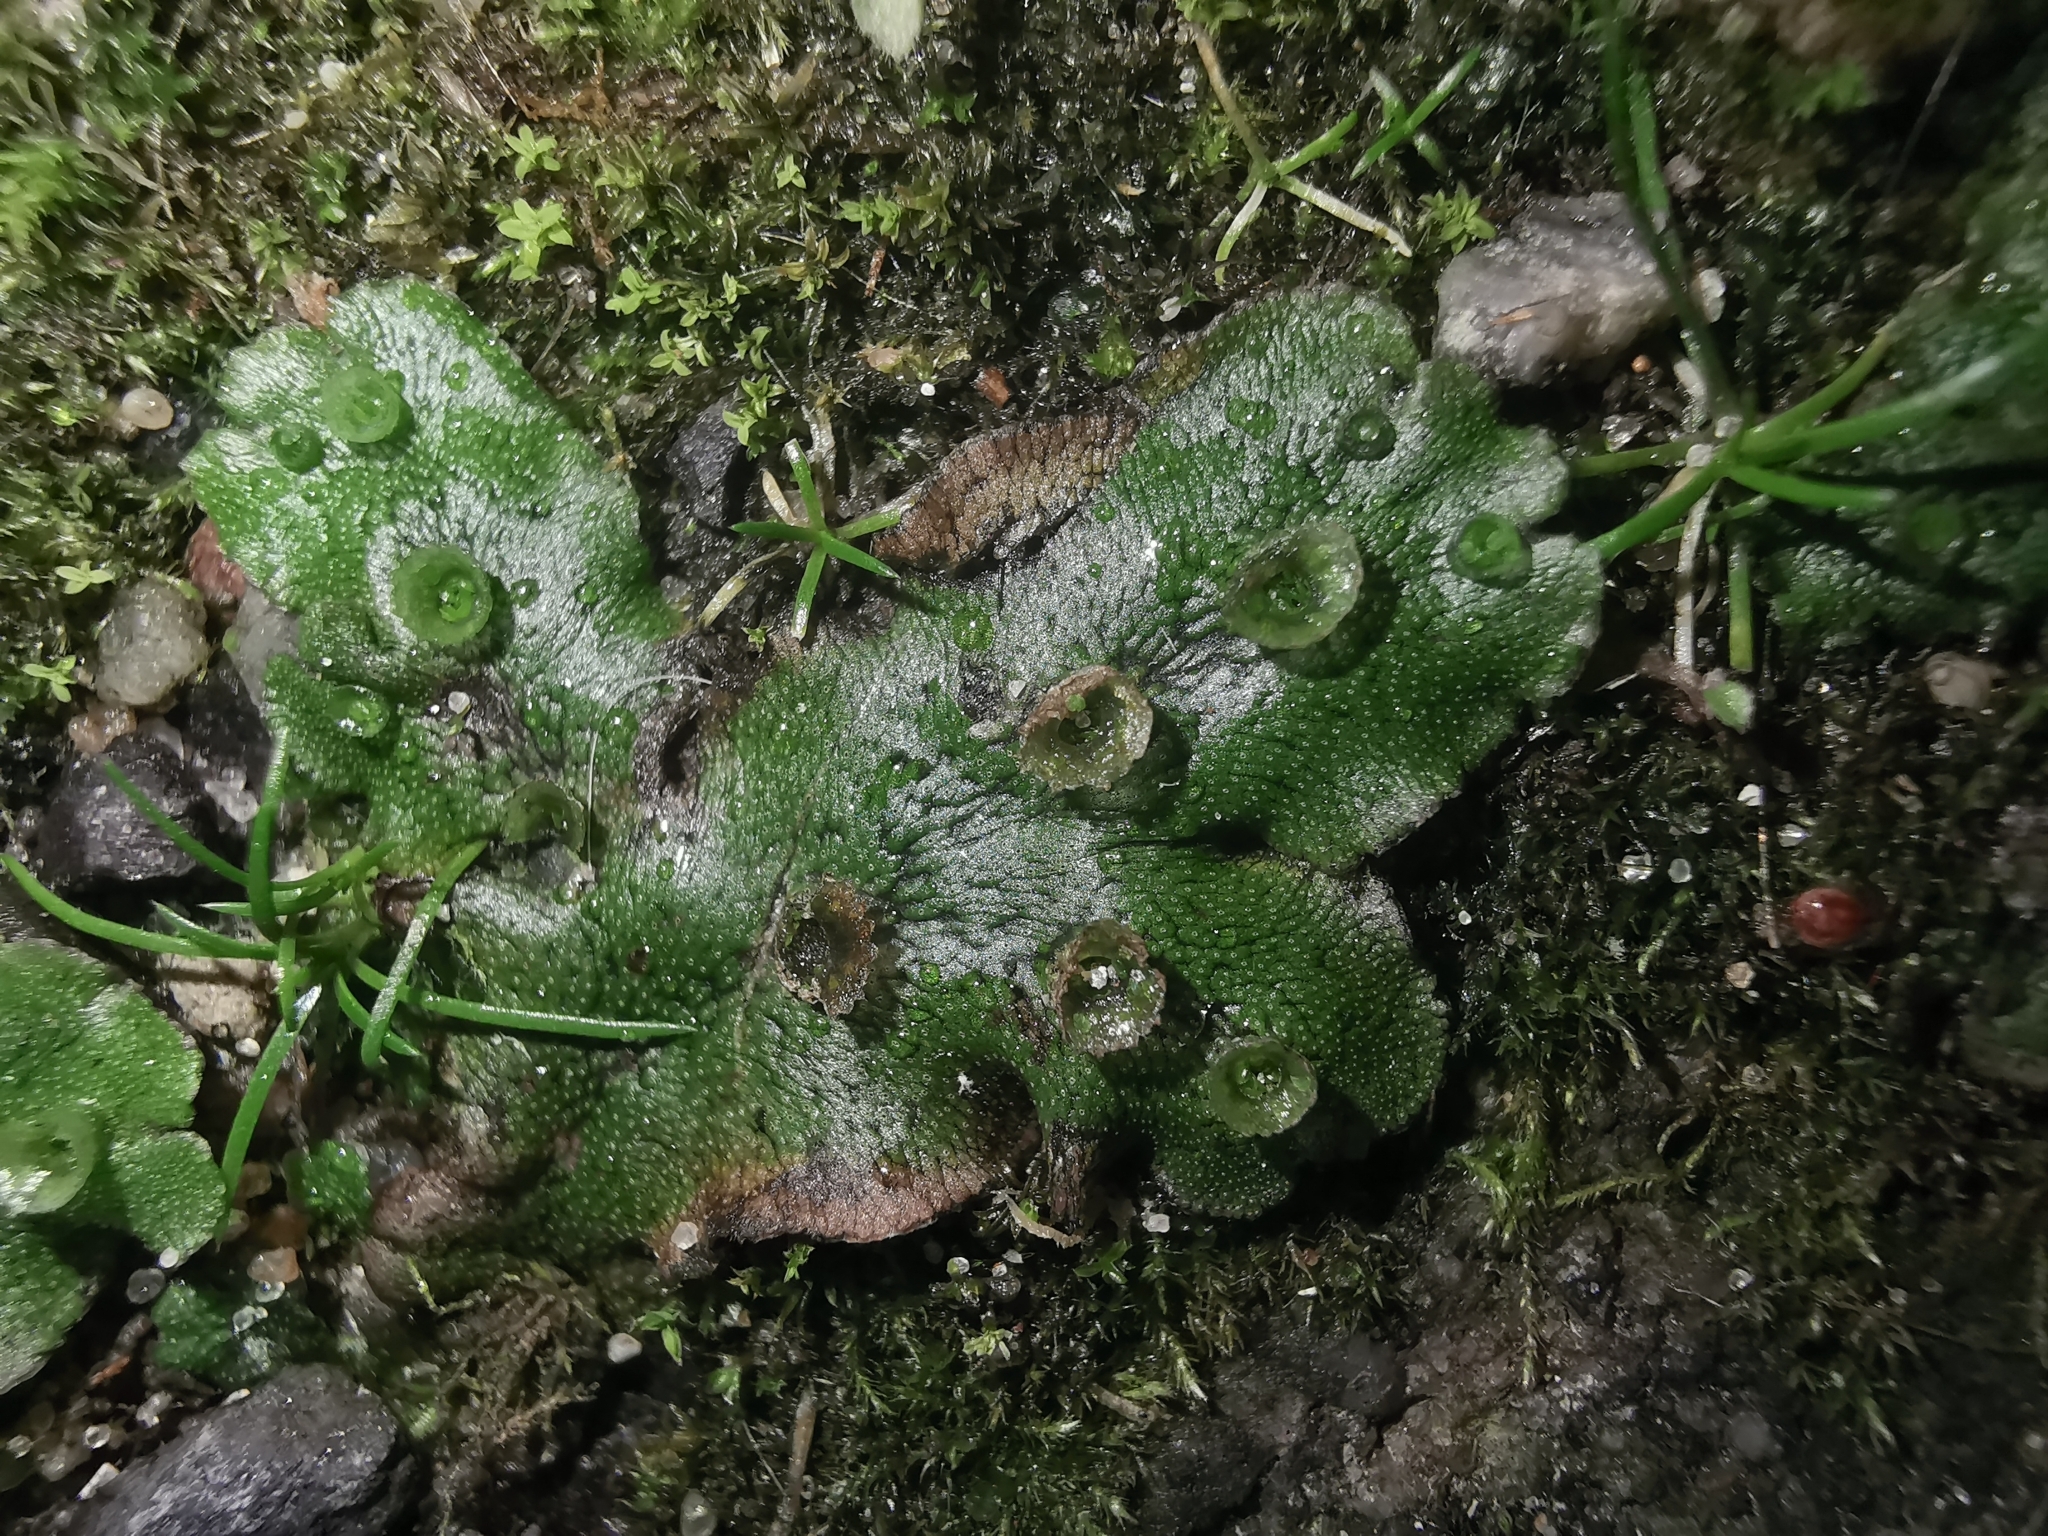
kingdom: Plantae
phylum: Marchantiophyta
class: Marchantiopsida
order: Marchantiales
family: Marchantiaceae
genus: Marchantia
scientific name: Marchantia polymorpha
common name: Common liverwort
